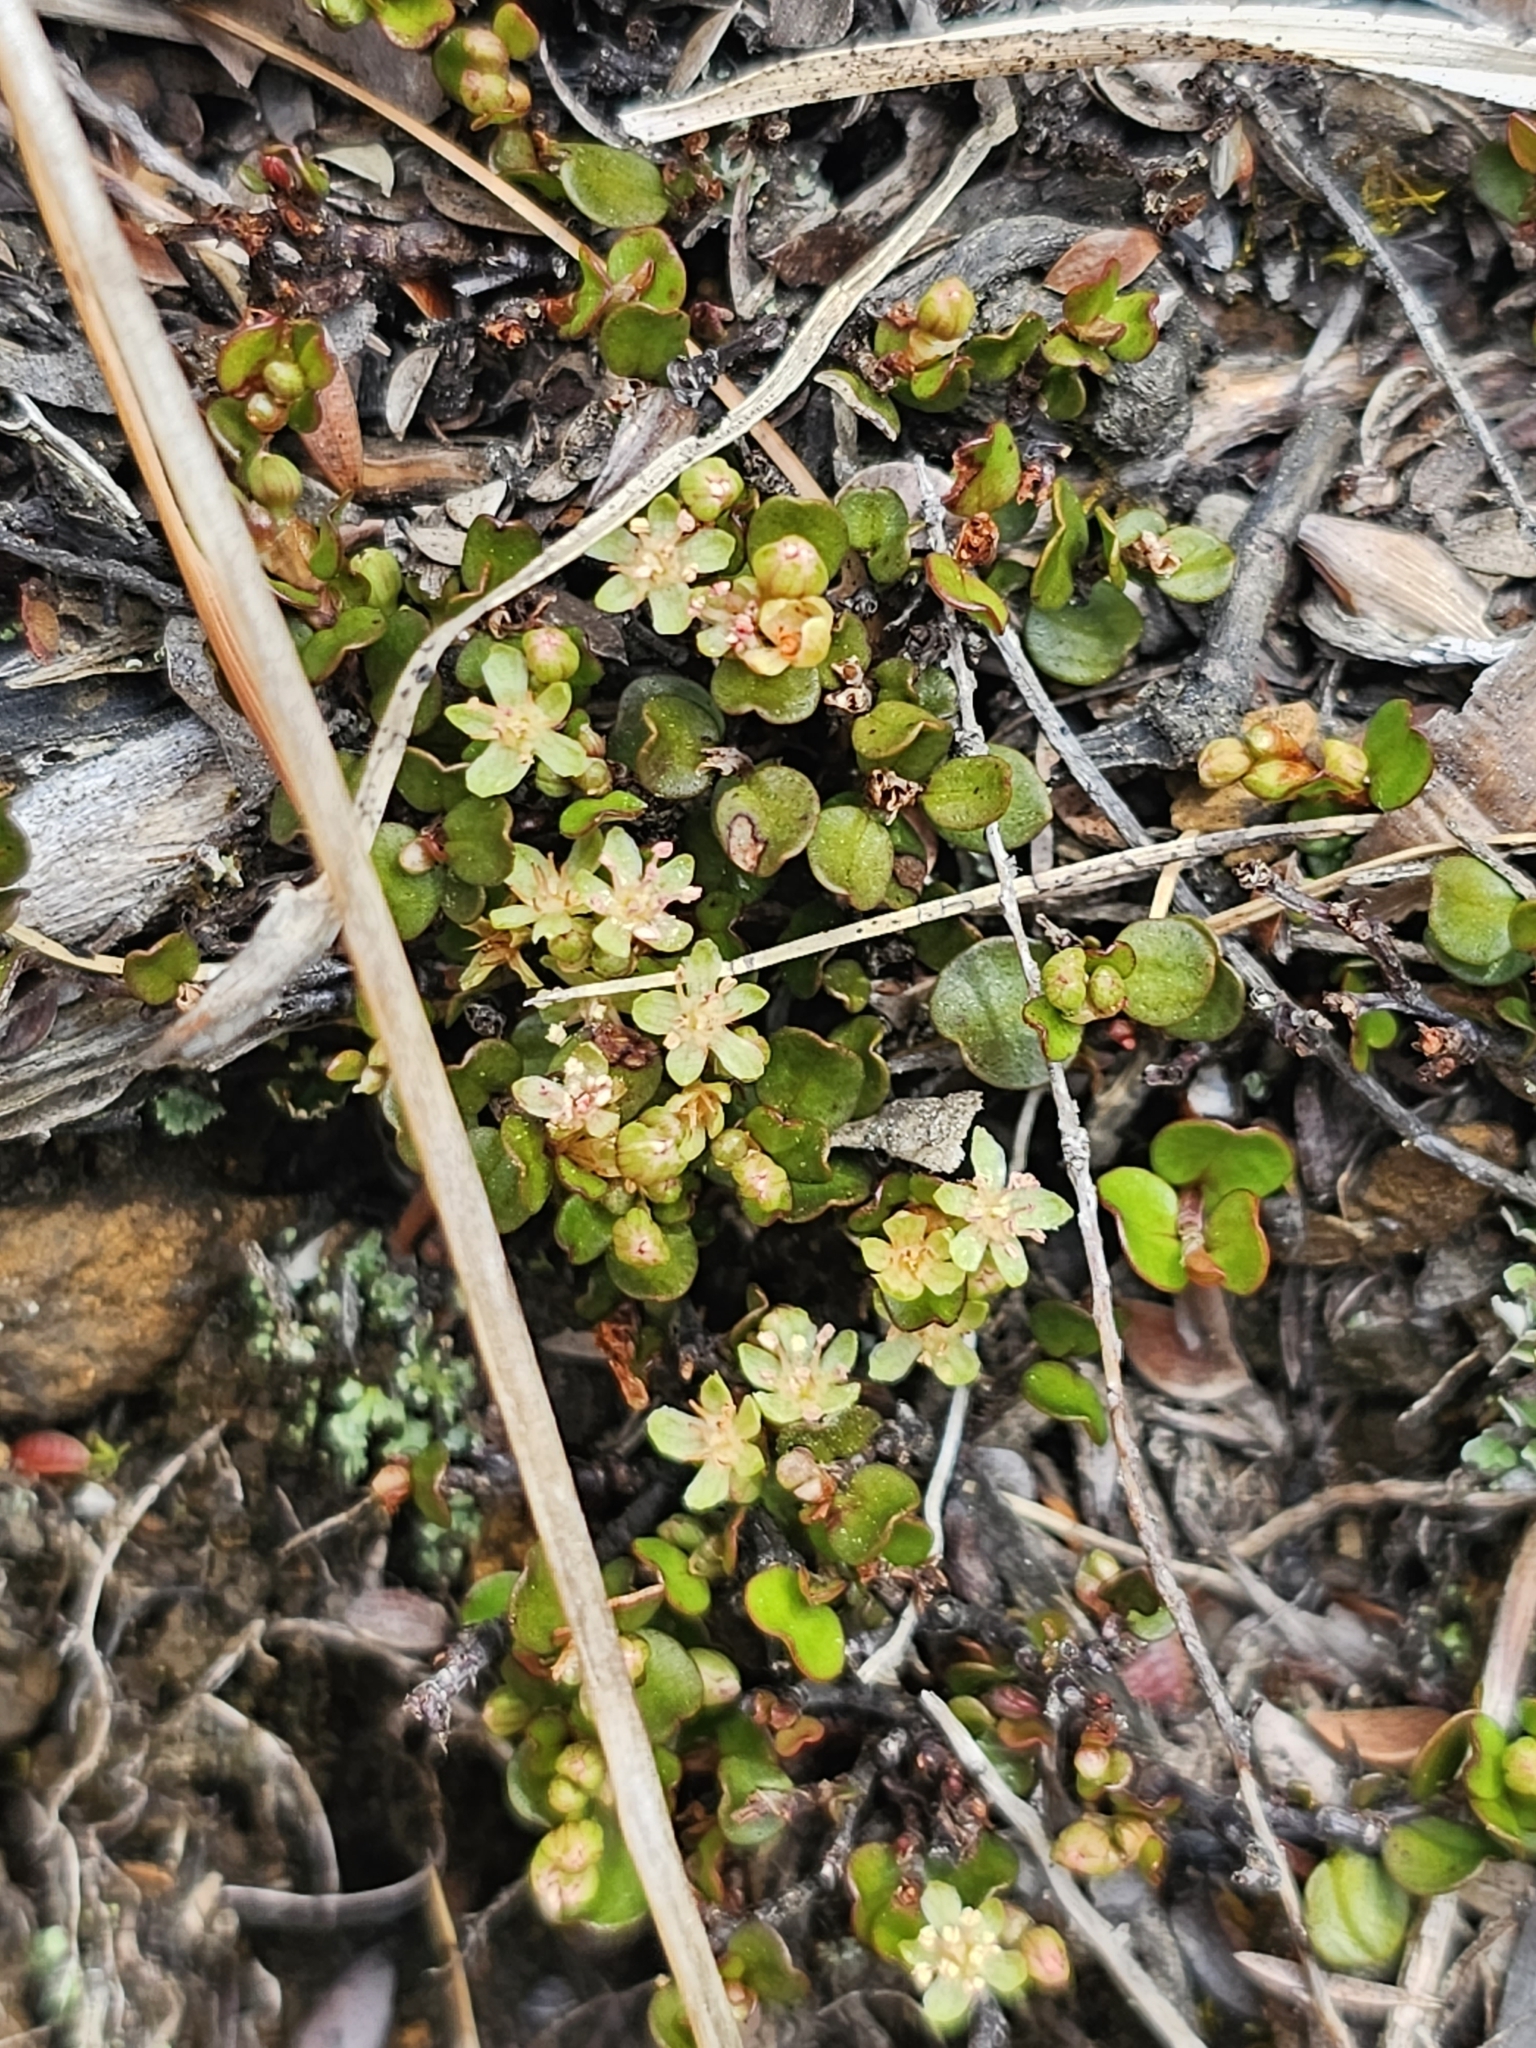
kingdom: Plantae
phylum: Tracheophyta
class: Magnoliopsida
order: Caryophyllales
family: Polygonaceae
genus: Muehlenbeckia
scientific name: Muehlenbeckia axillaris
